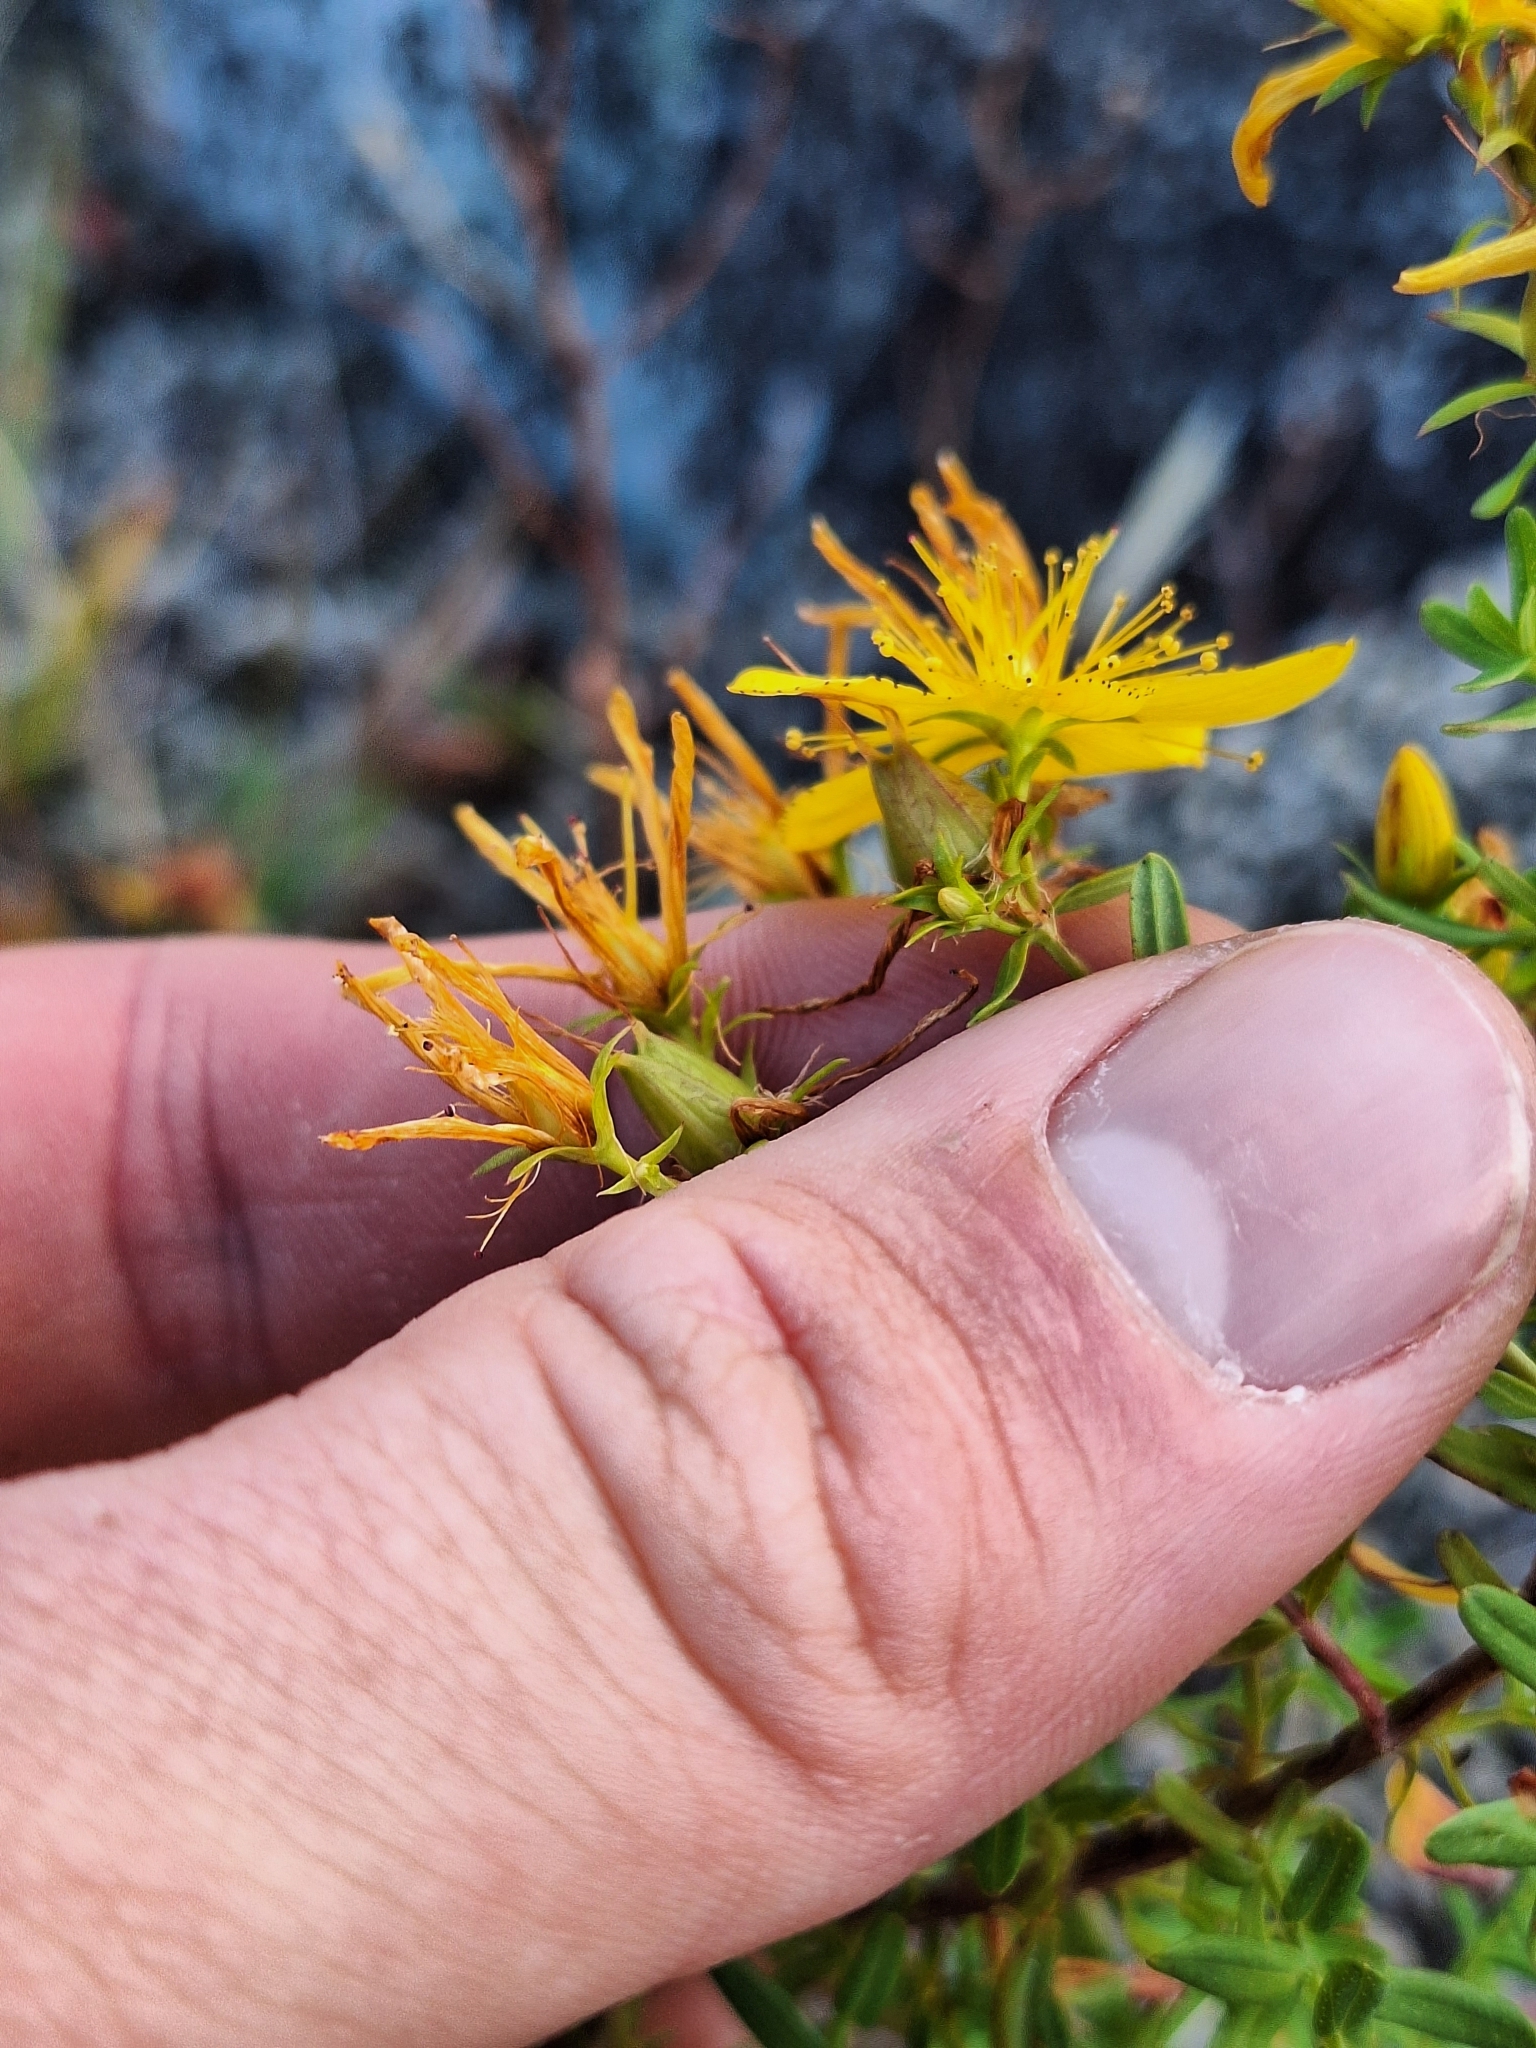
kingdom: Plantae
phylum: Tracheophyta
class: Magnoliopsida
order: Malpighiales
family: Hypericaceae
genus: Hypericum
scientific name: Hypericum perforatum
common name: Common st. johnswort
